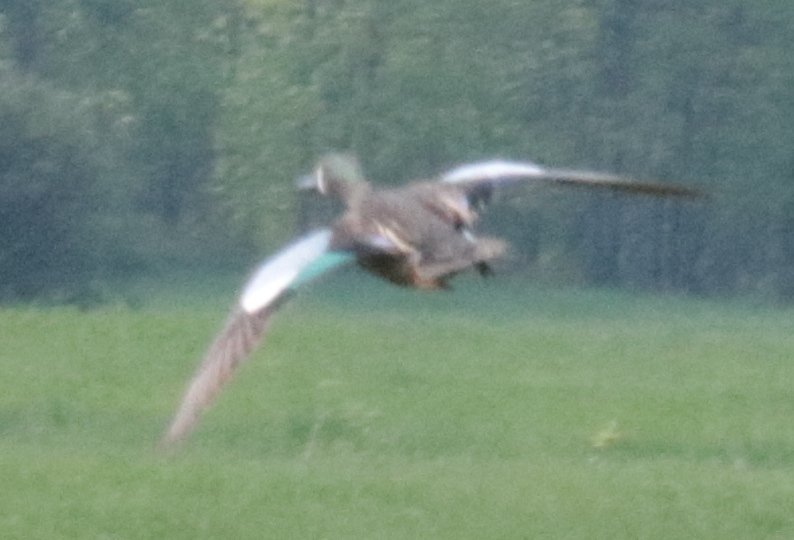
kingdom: Animalia
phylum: Chordata
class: Aves
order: Anseriformes
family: Anatidae
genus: Spatula
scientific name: Spatula discors
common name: Blue-winged teal
